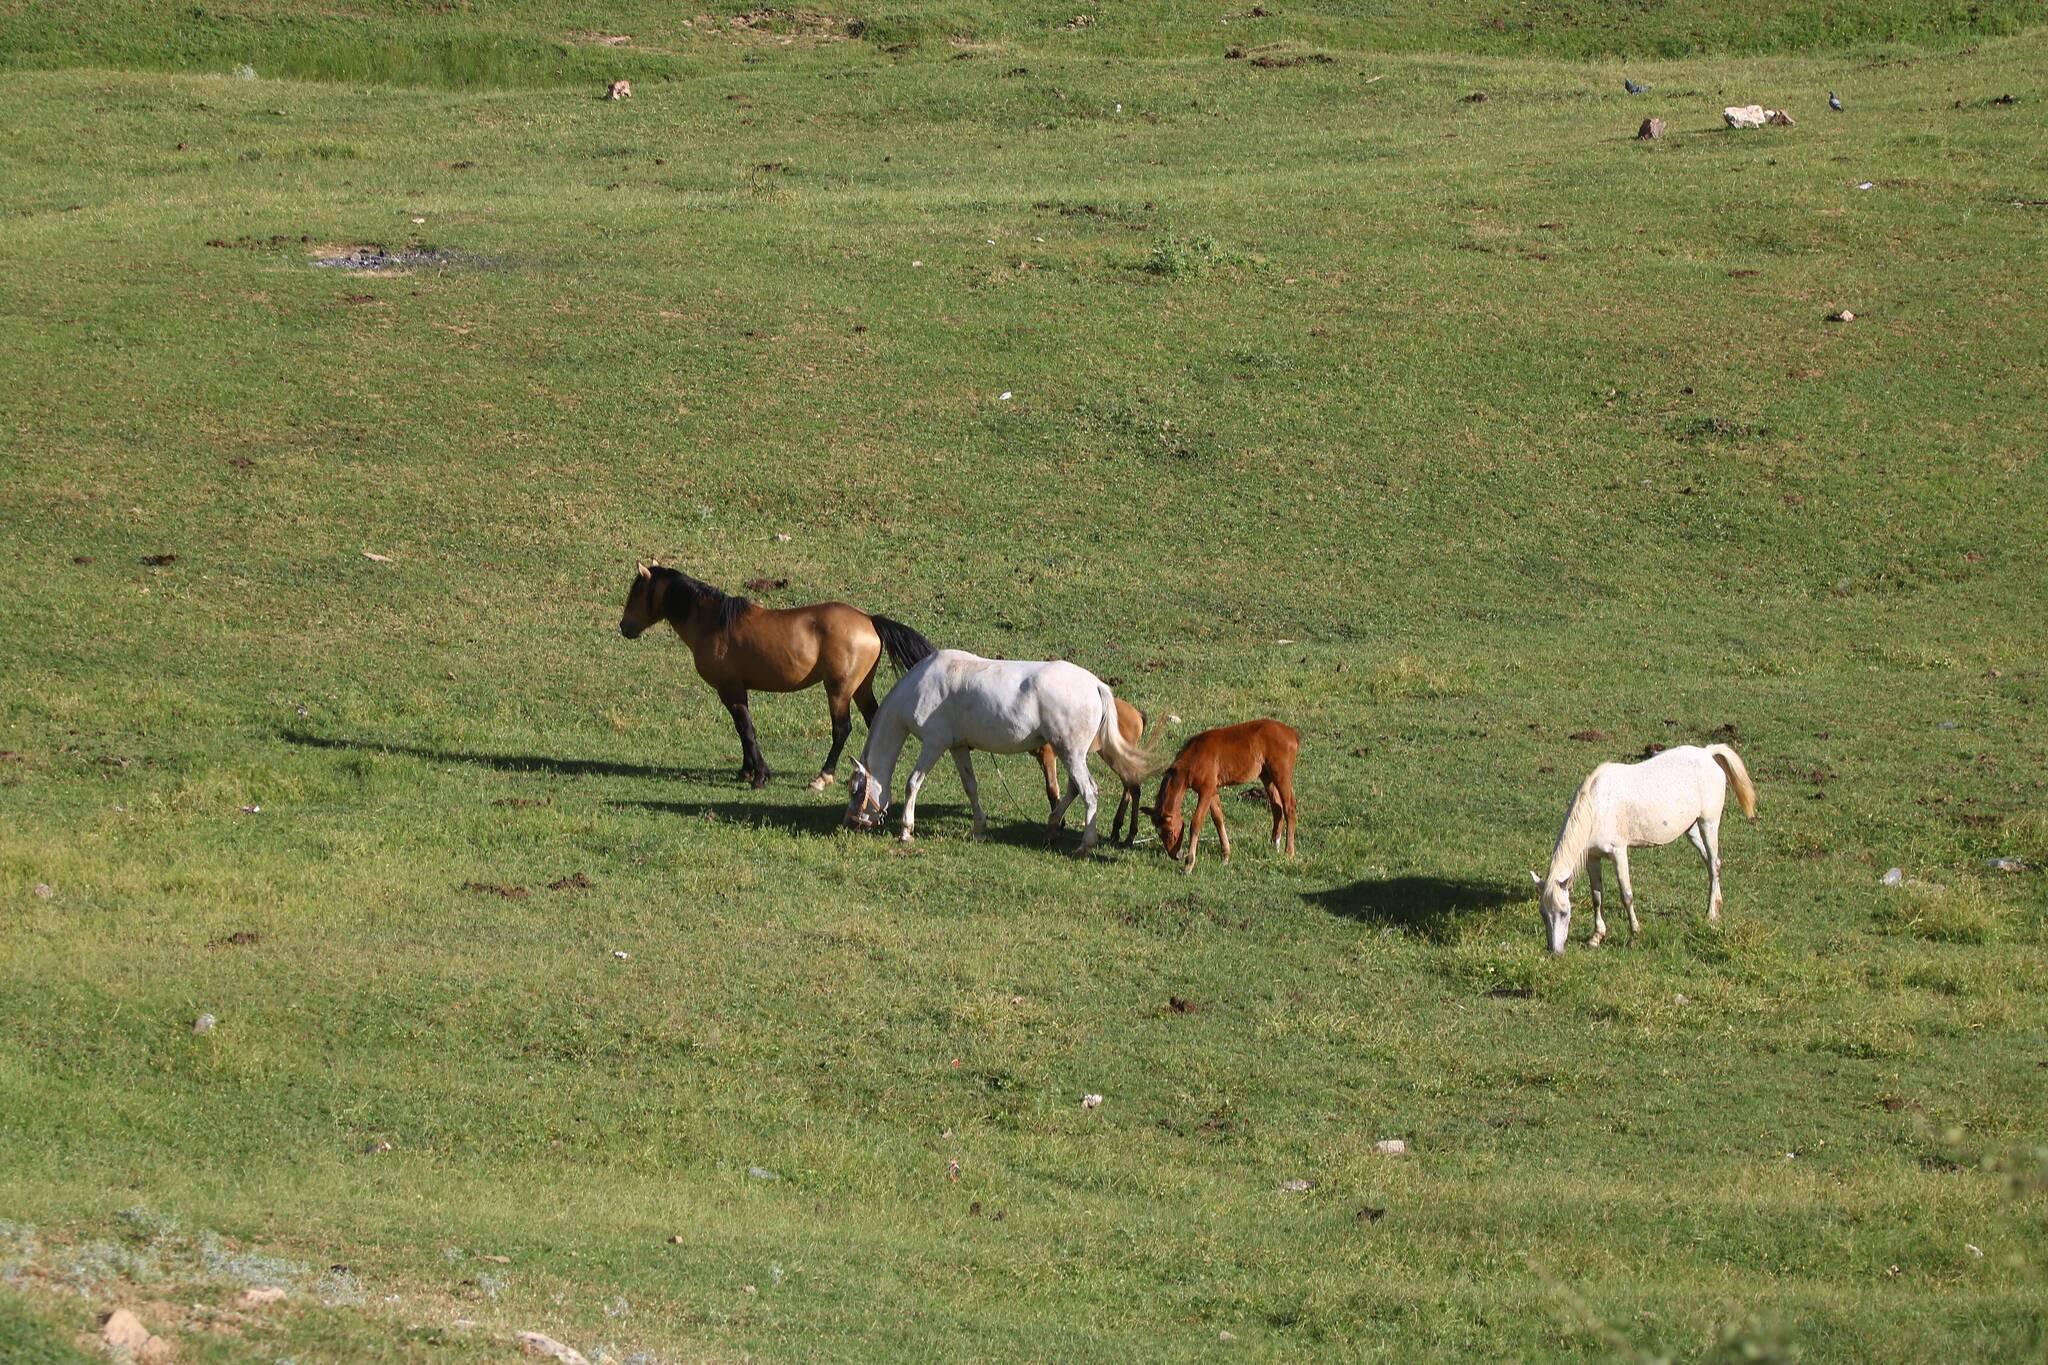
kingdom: Animalia
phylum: Chordata
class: Mammalia
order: Perissodactyla
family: Equidae
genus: Equus
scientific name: Equus caballus
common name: Horse
